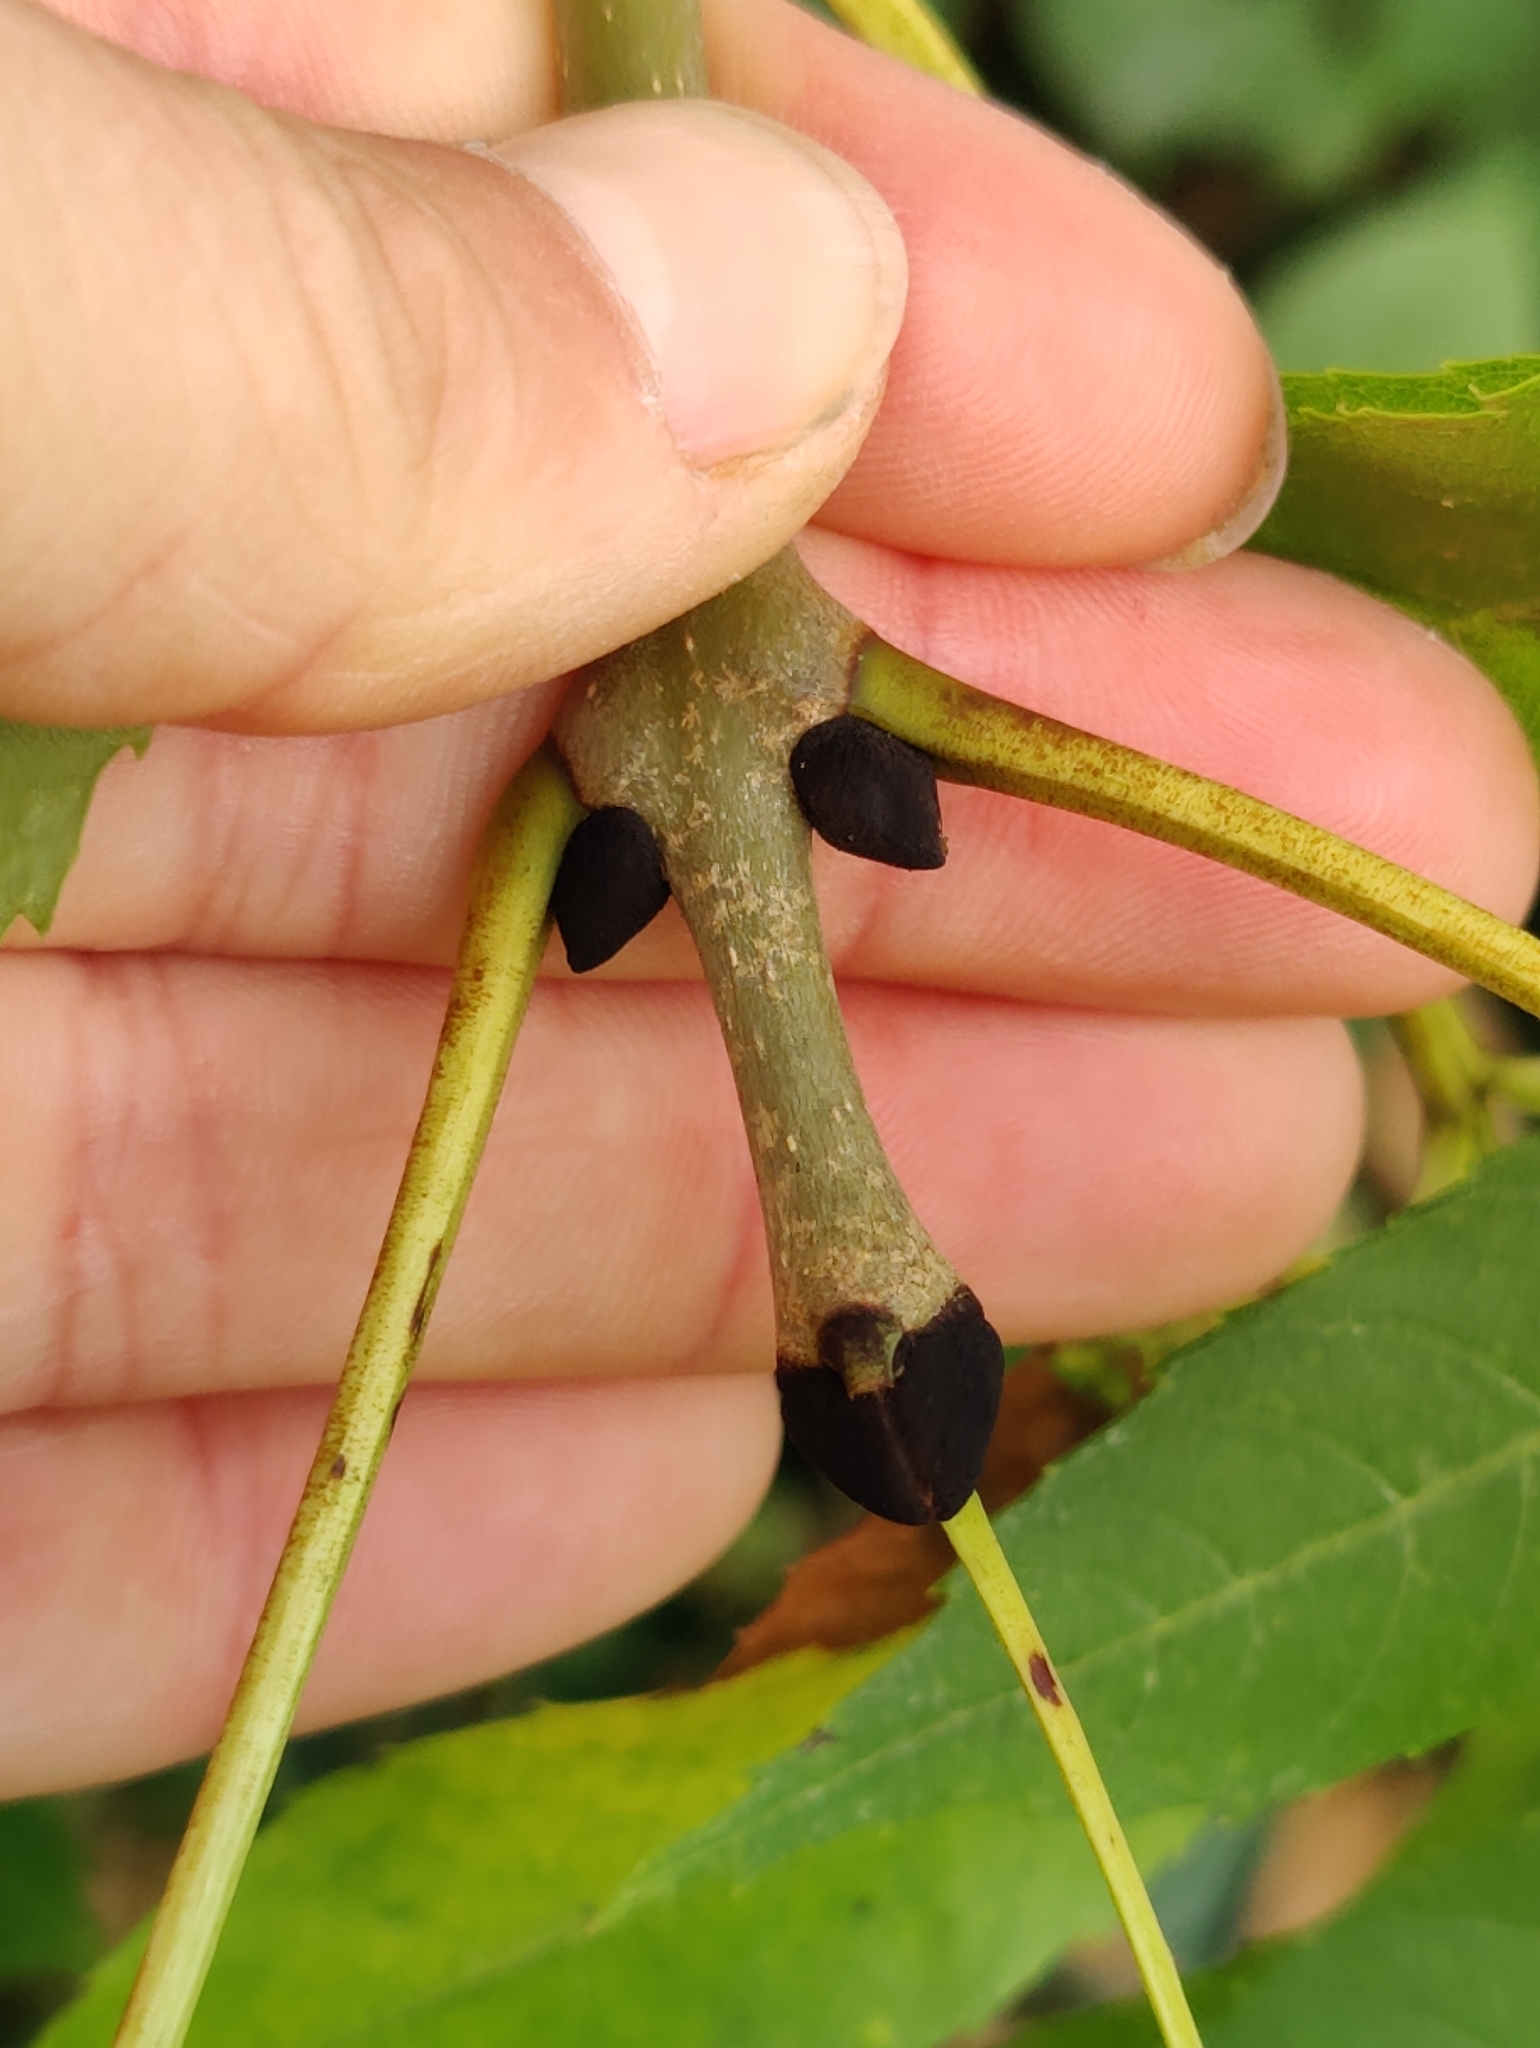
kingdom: Plantae
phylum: Tracheophyta
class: Magnoliopsida
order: Lamiales
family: Oleaceae
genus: Fraxinus
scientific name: Fraxinus excelsior
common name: European ash
